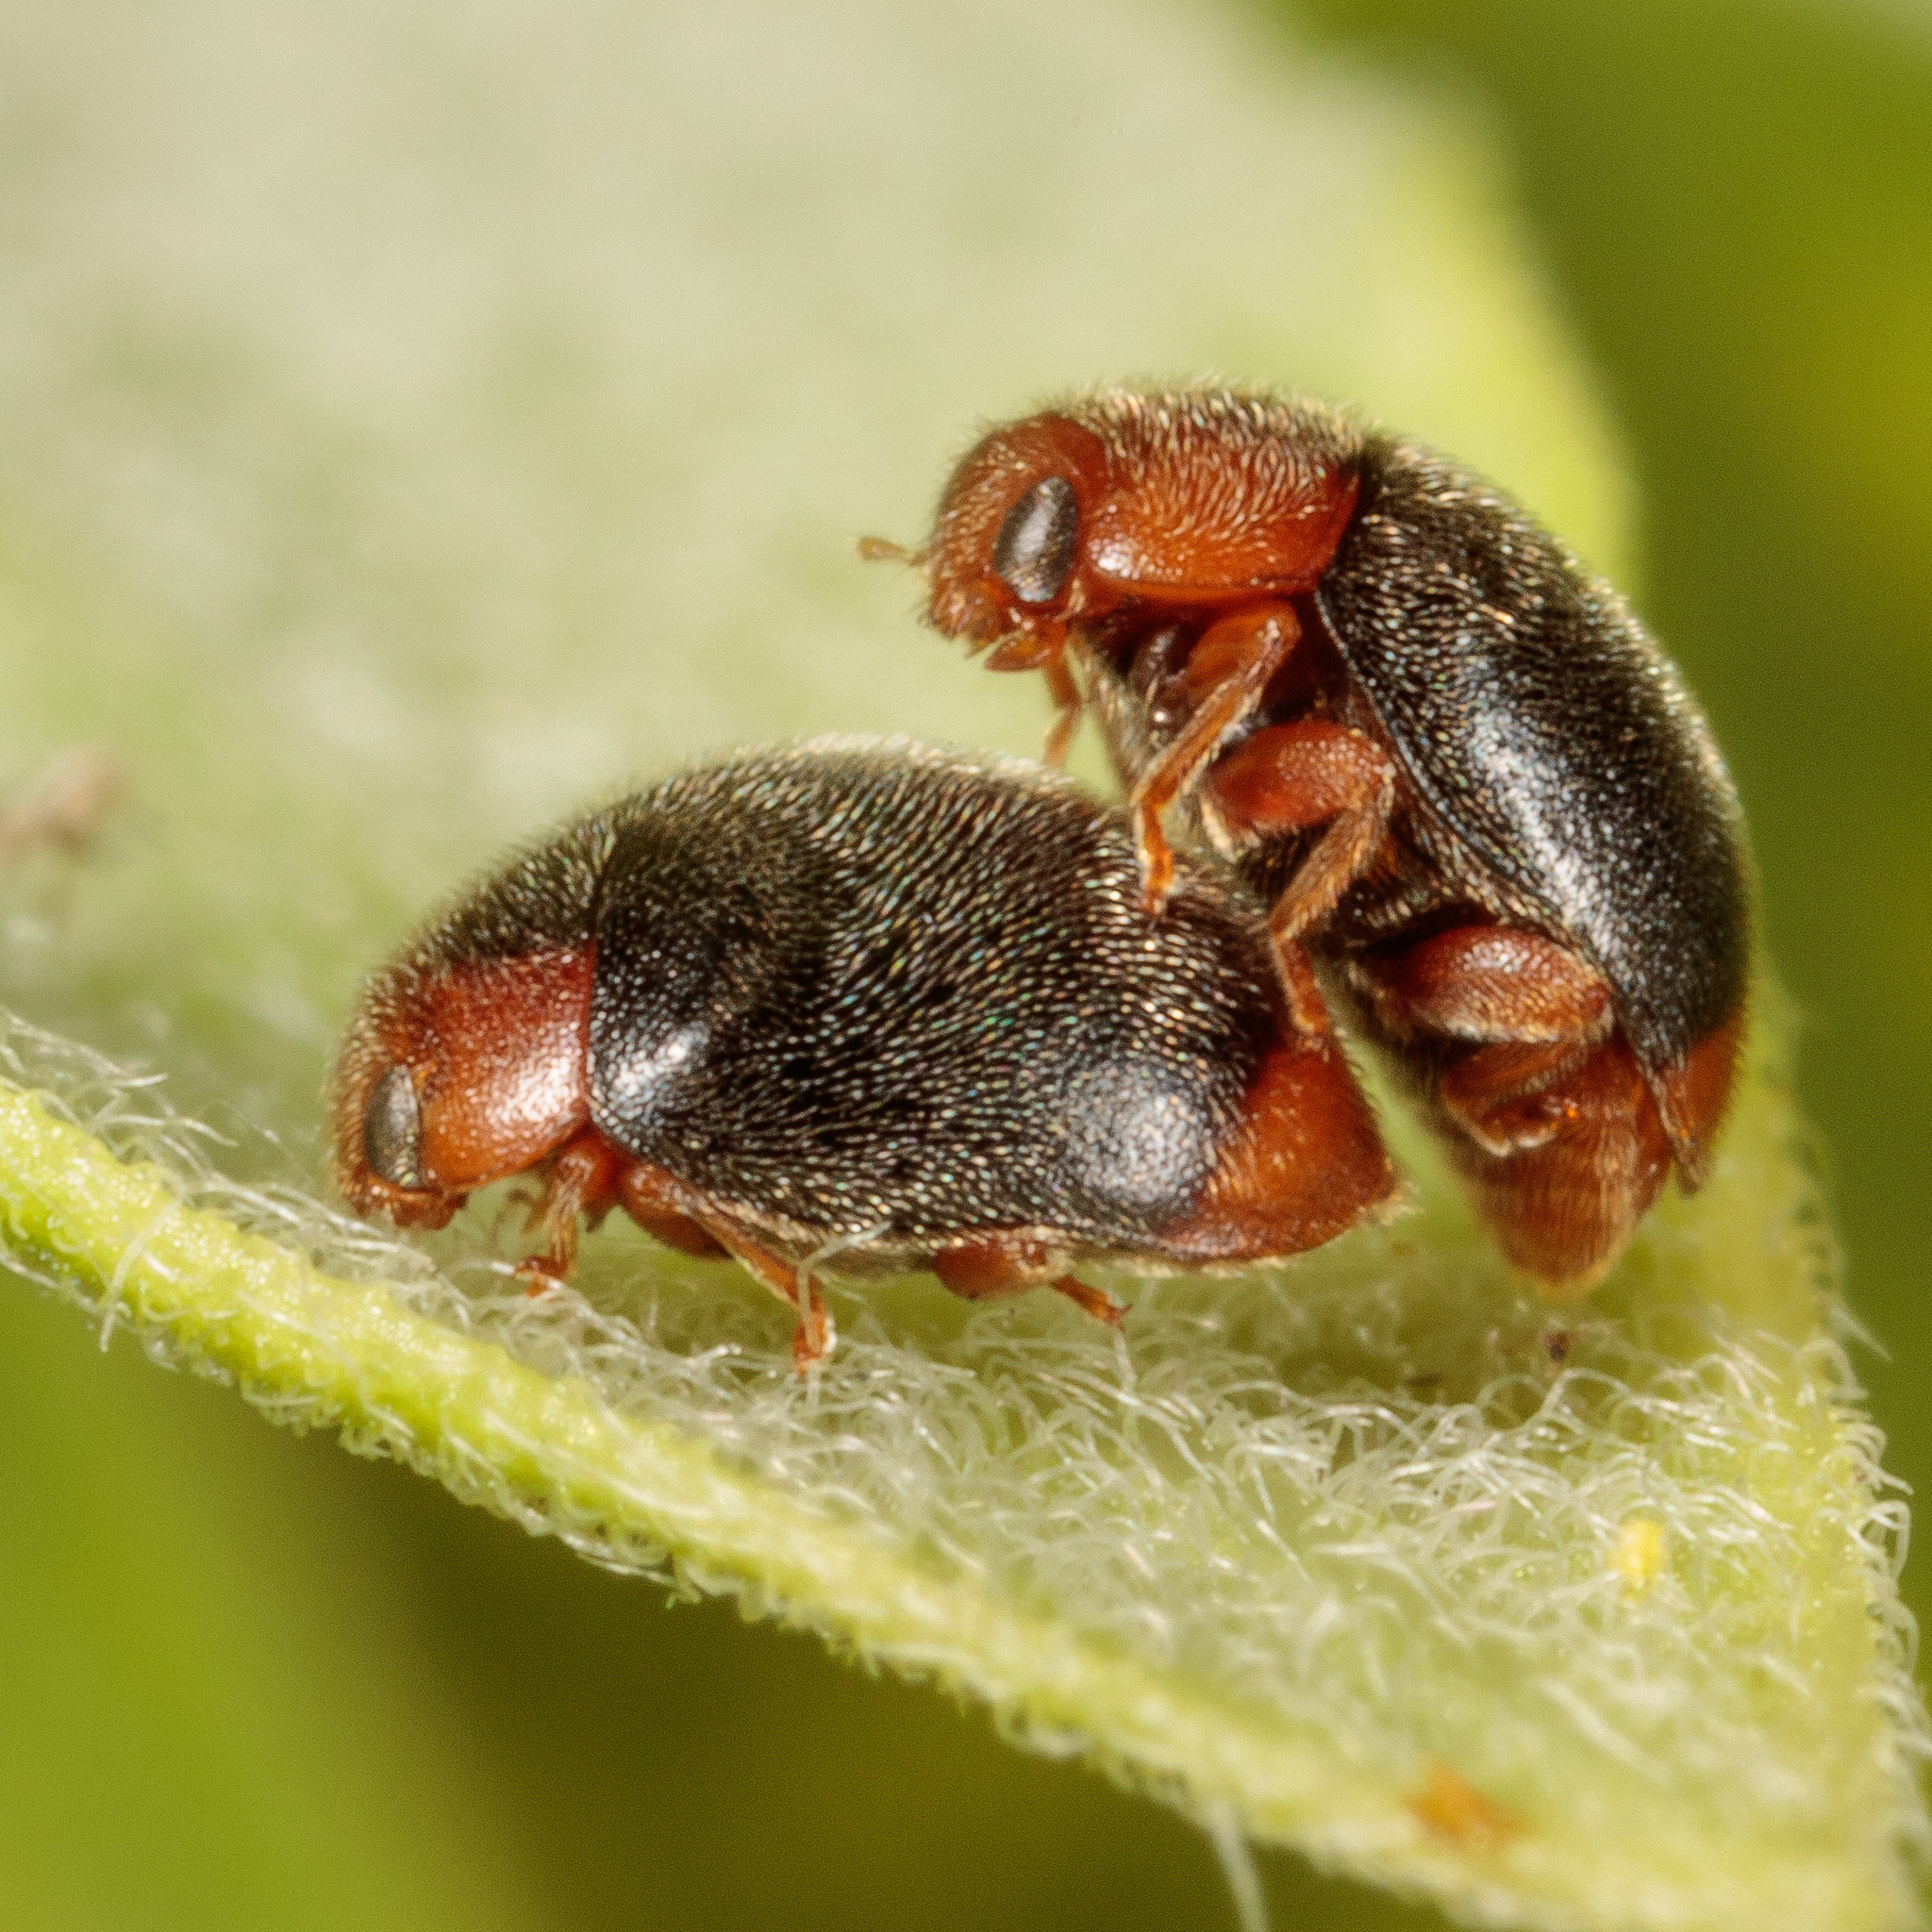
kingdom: Animalia
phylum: Arthropoda
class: Insecta
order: Coleoptera
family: Coccinellidae
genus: Scymnus
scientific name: Scymnus louisianae
